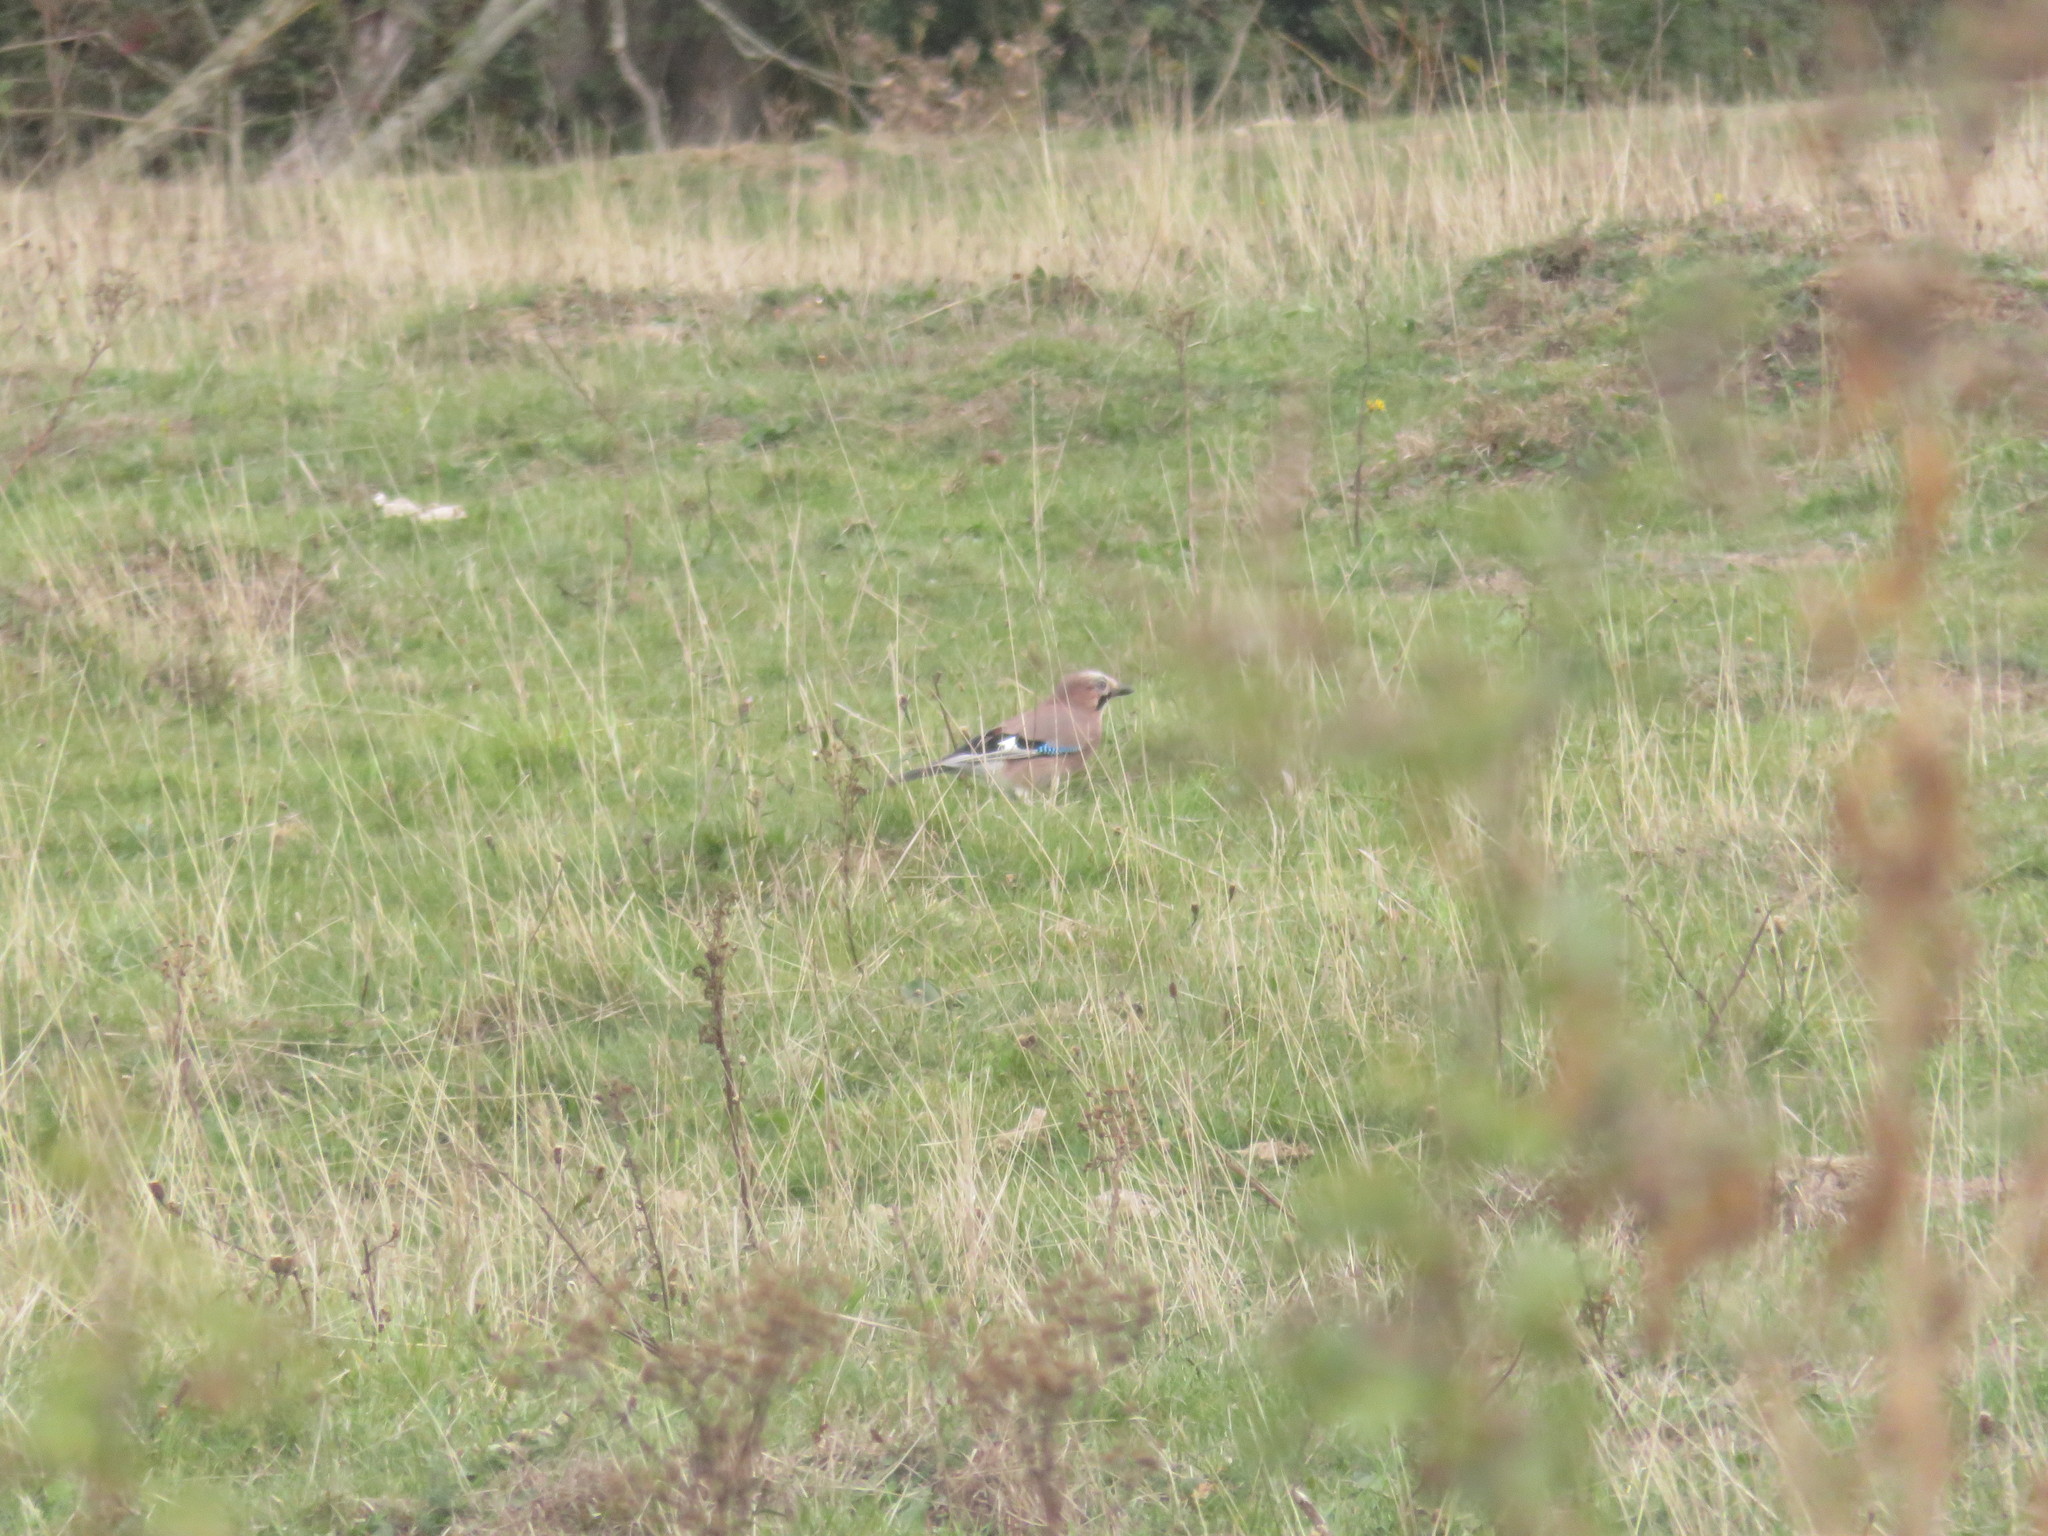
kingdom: Animalia
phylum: Chordata
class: Aves
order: Passeriformes
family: Corvidae
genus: Garrulus
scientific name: Garrulus glandarius
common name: Eurasian jay
